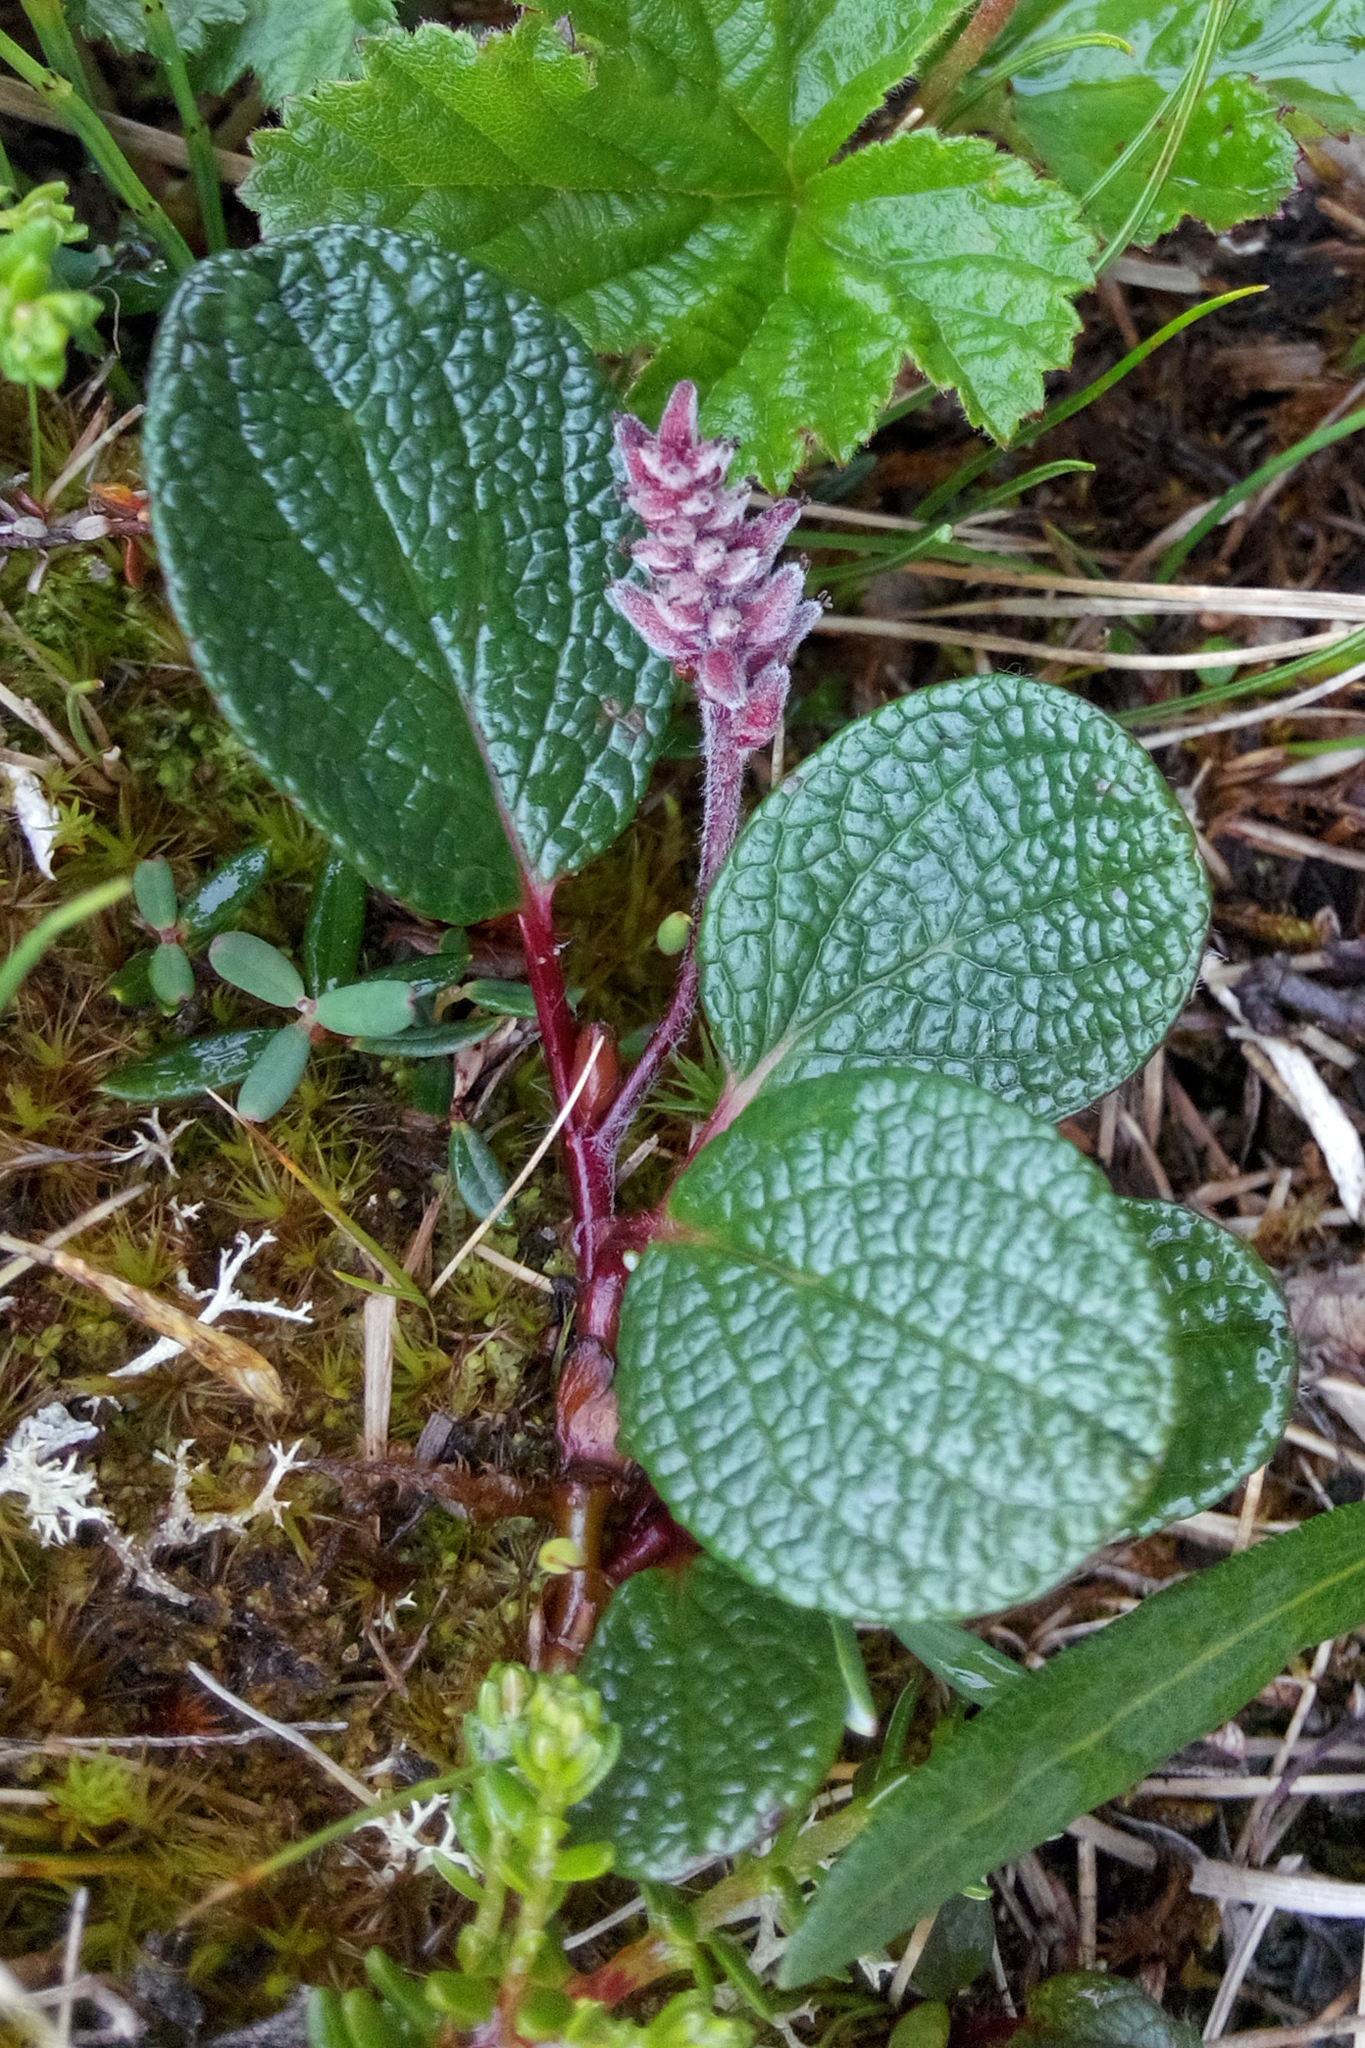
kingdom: Plantae
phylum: Tracheophyta
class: Magnoliopsida
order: Malpighiales
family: Salicaceae
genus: Salix
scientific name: Salix reticulata
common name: Net-leaved willow
